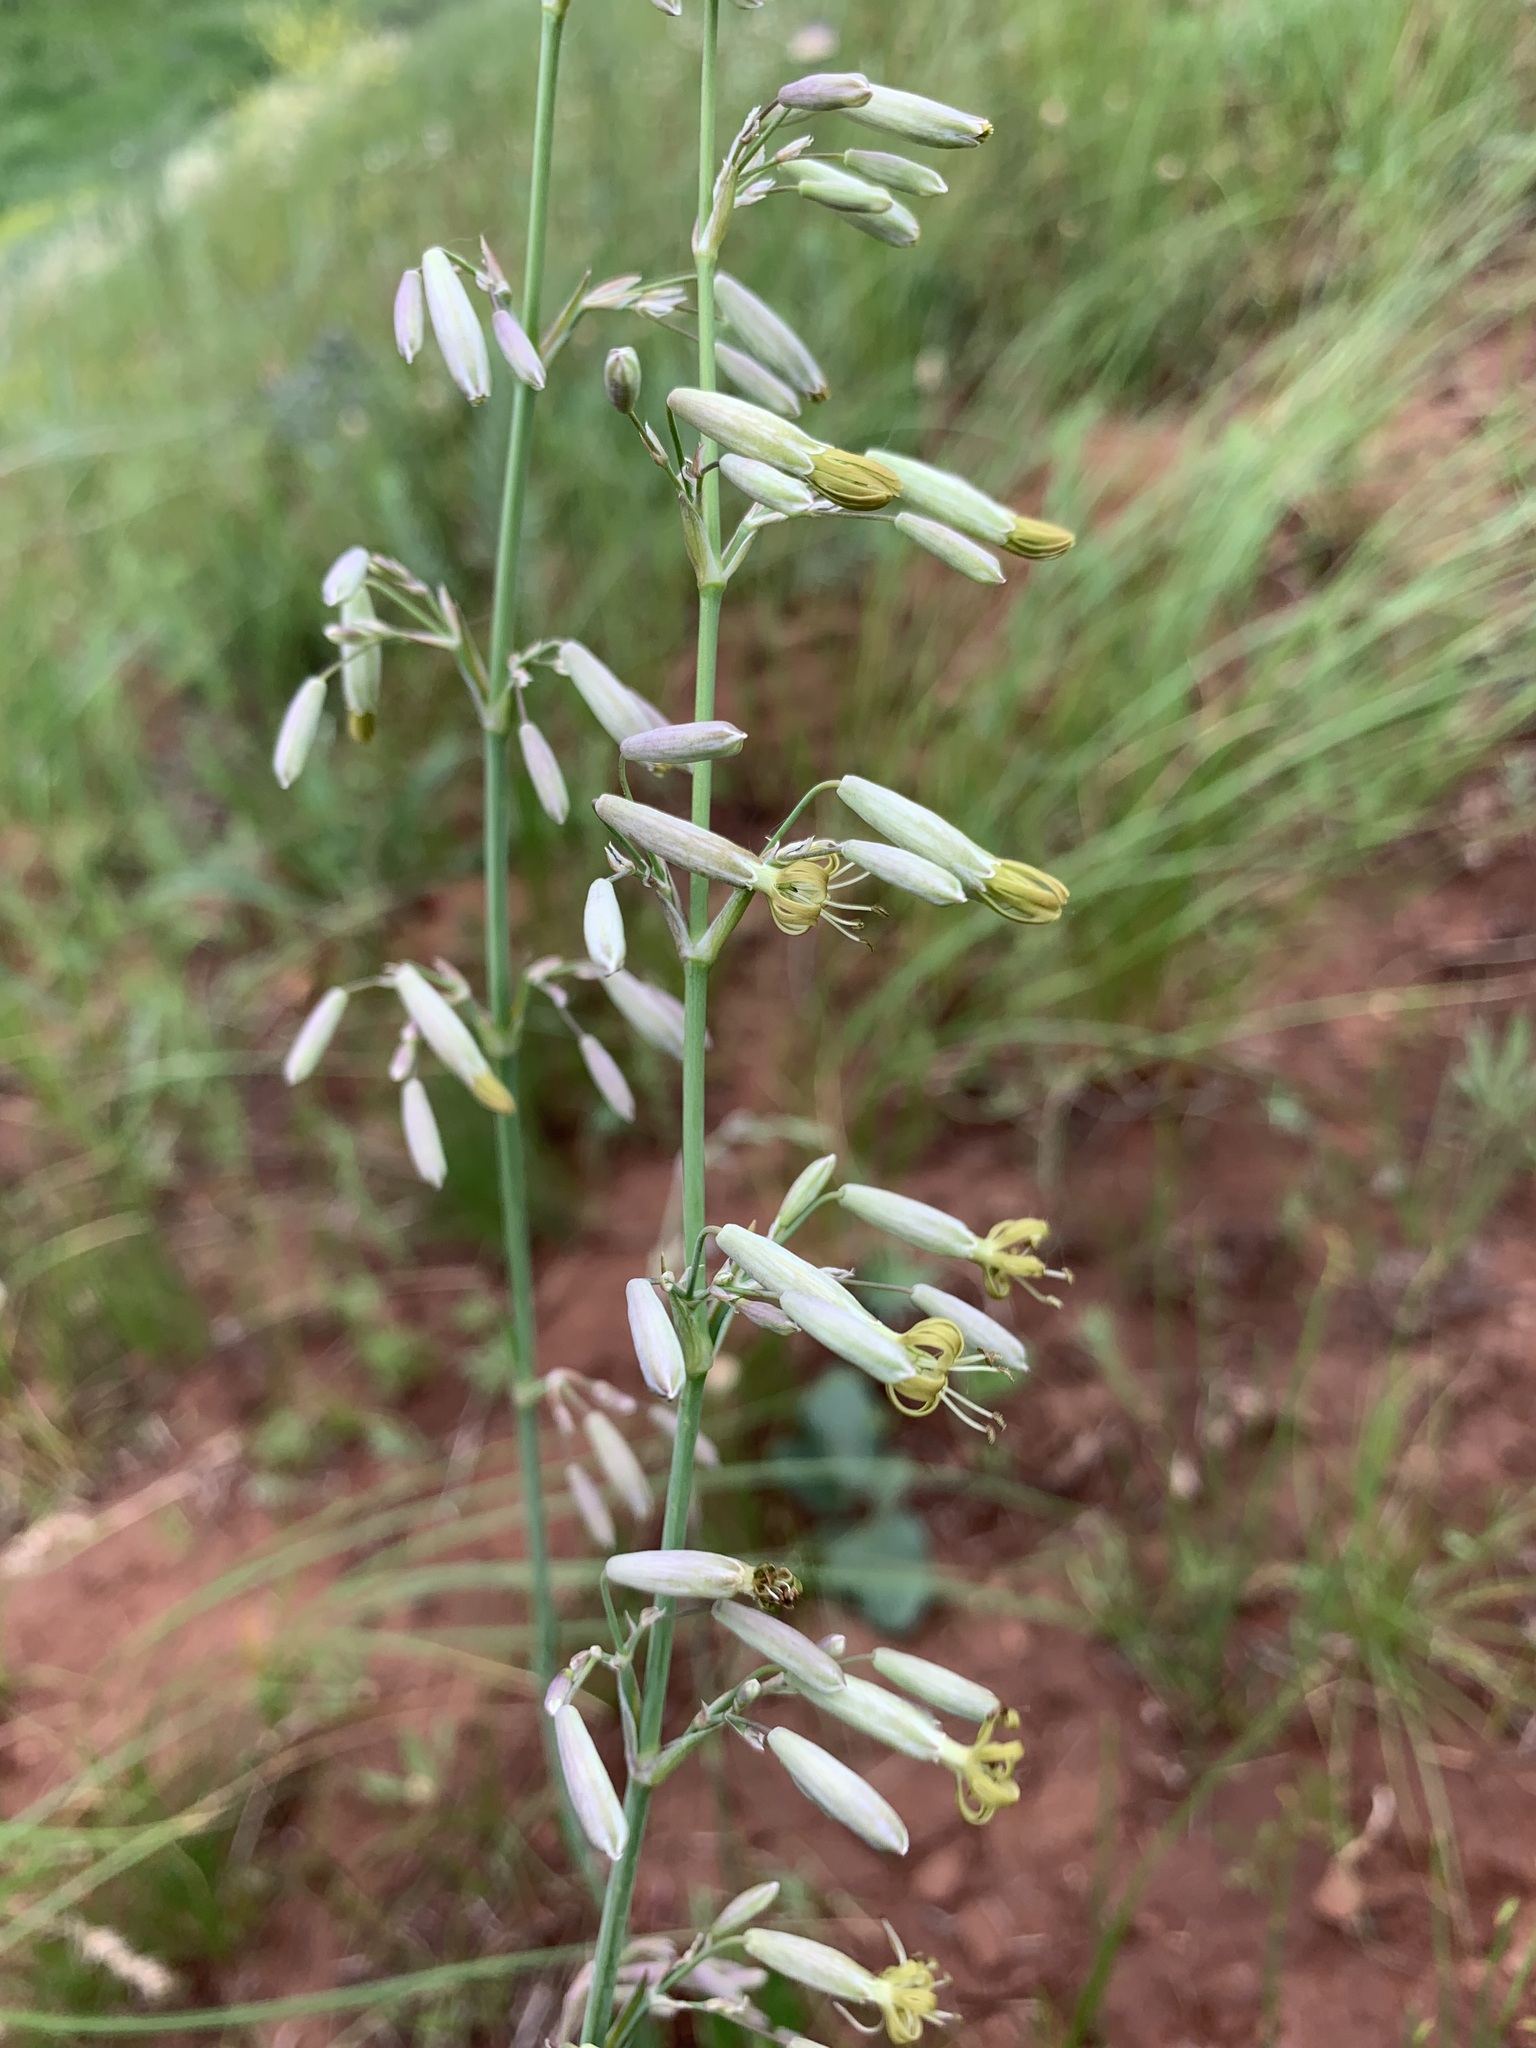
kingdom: Plantae
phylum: Tracheophyta
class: Magnoliopsida
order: Caryophyllales
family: Caryophyllaceae
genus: Silene
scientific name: Silene chlorantha
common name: Yellowgreen catchfly
